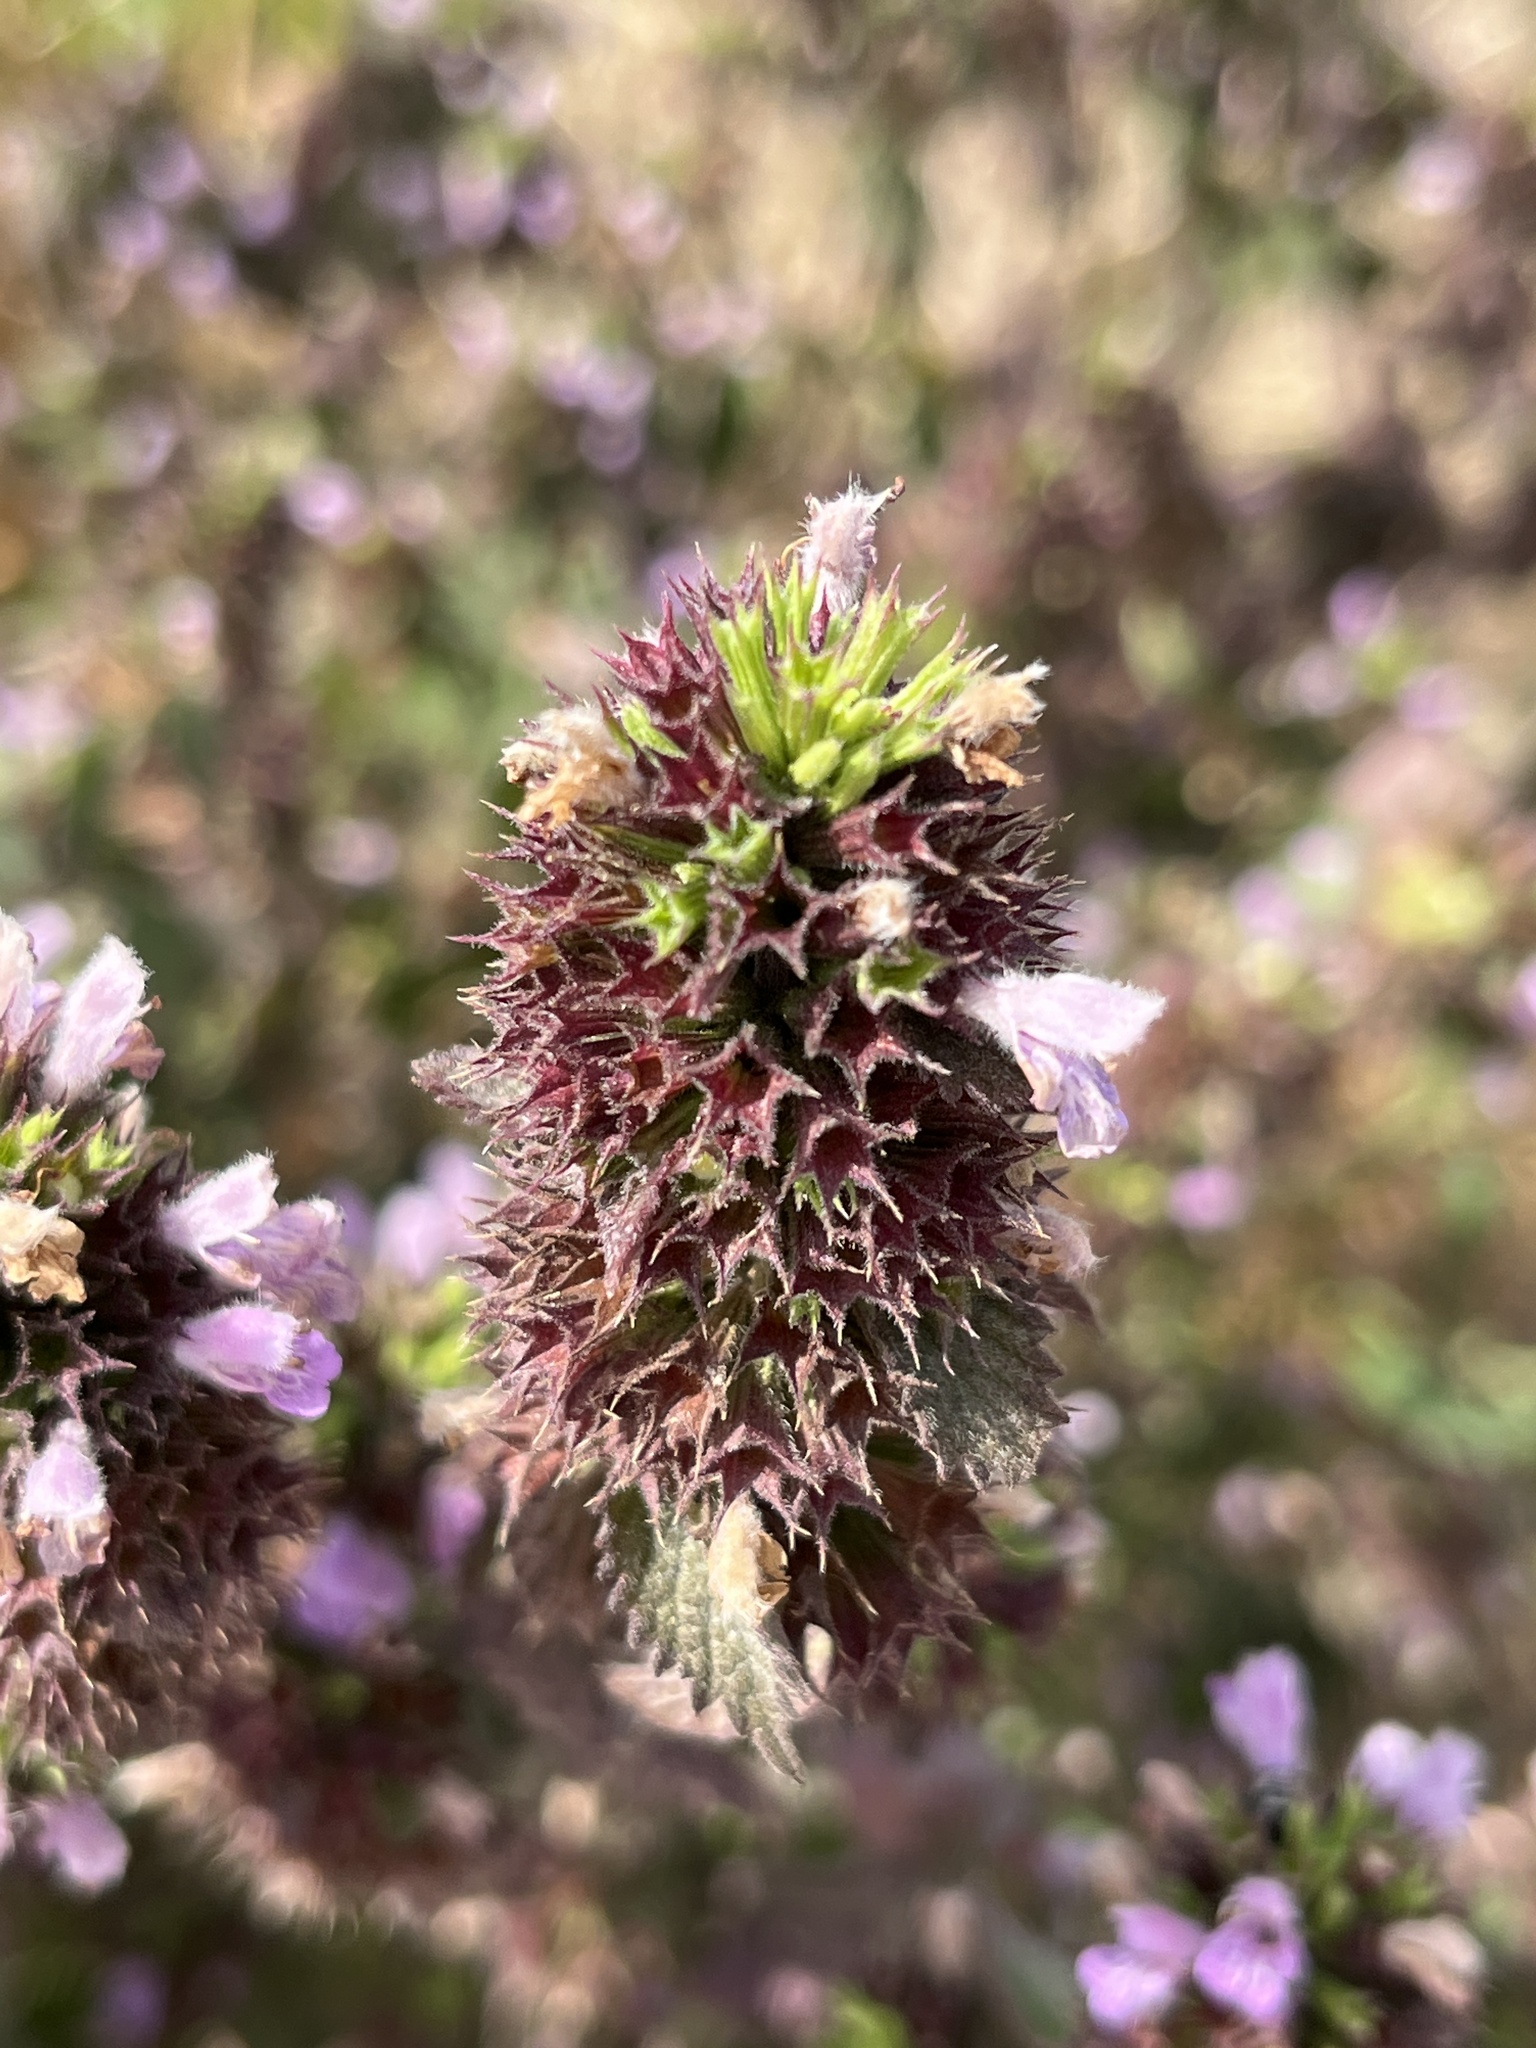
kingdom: Plantae
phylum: Tracheophyta
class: Magnoliopsida
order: Lamiales
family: Lamiaceae
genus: Ballota
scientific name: Ballota nigra
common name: Black horehound
